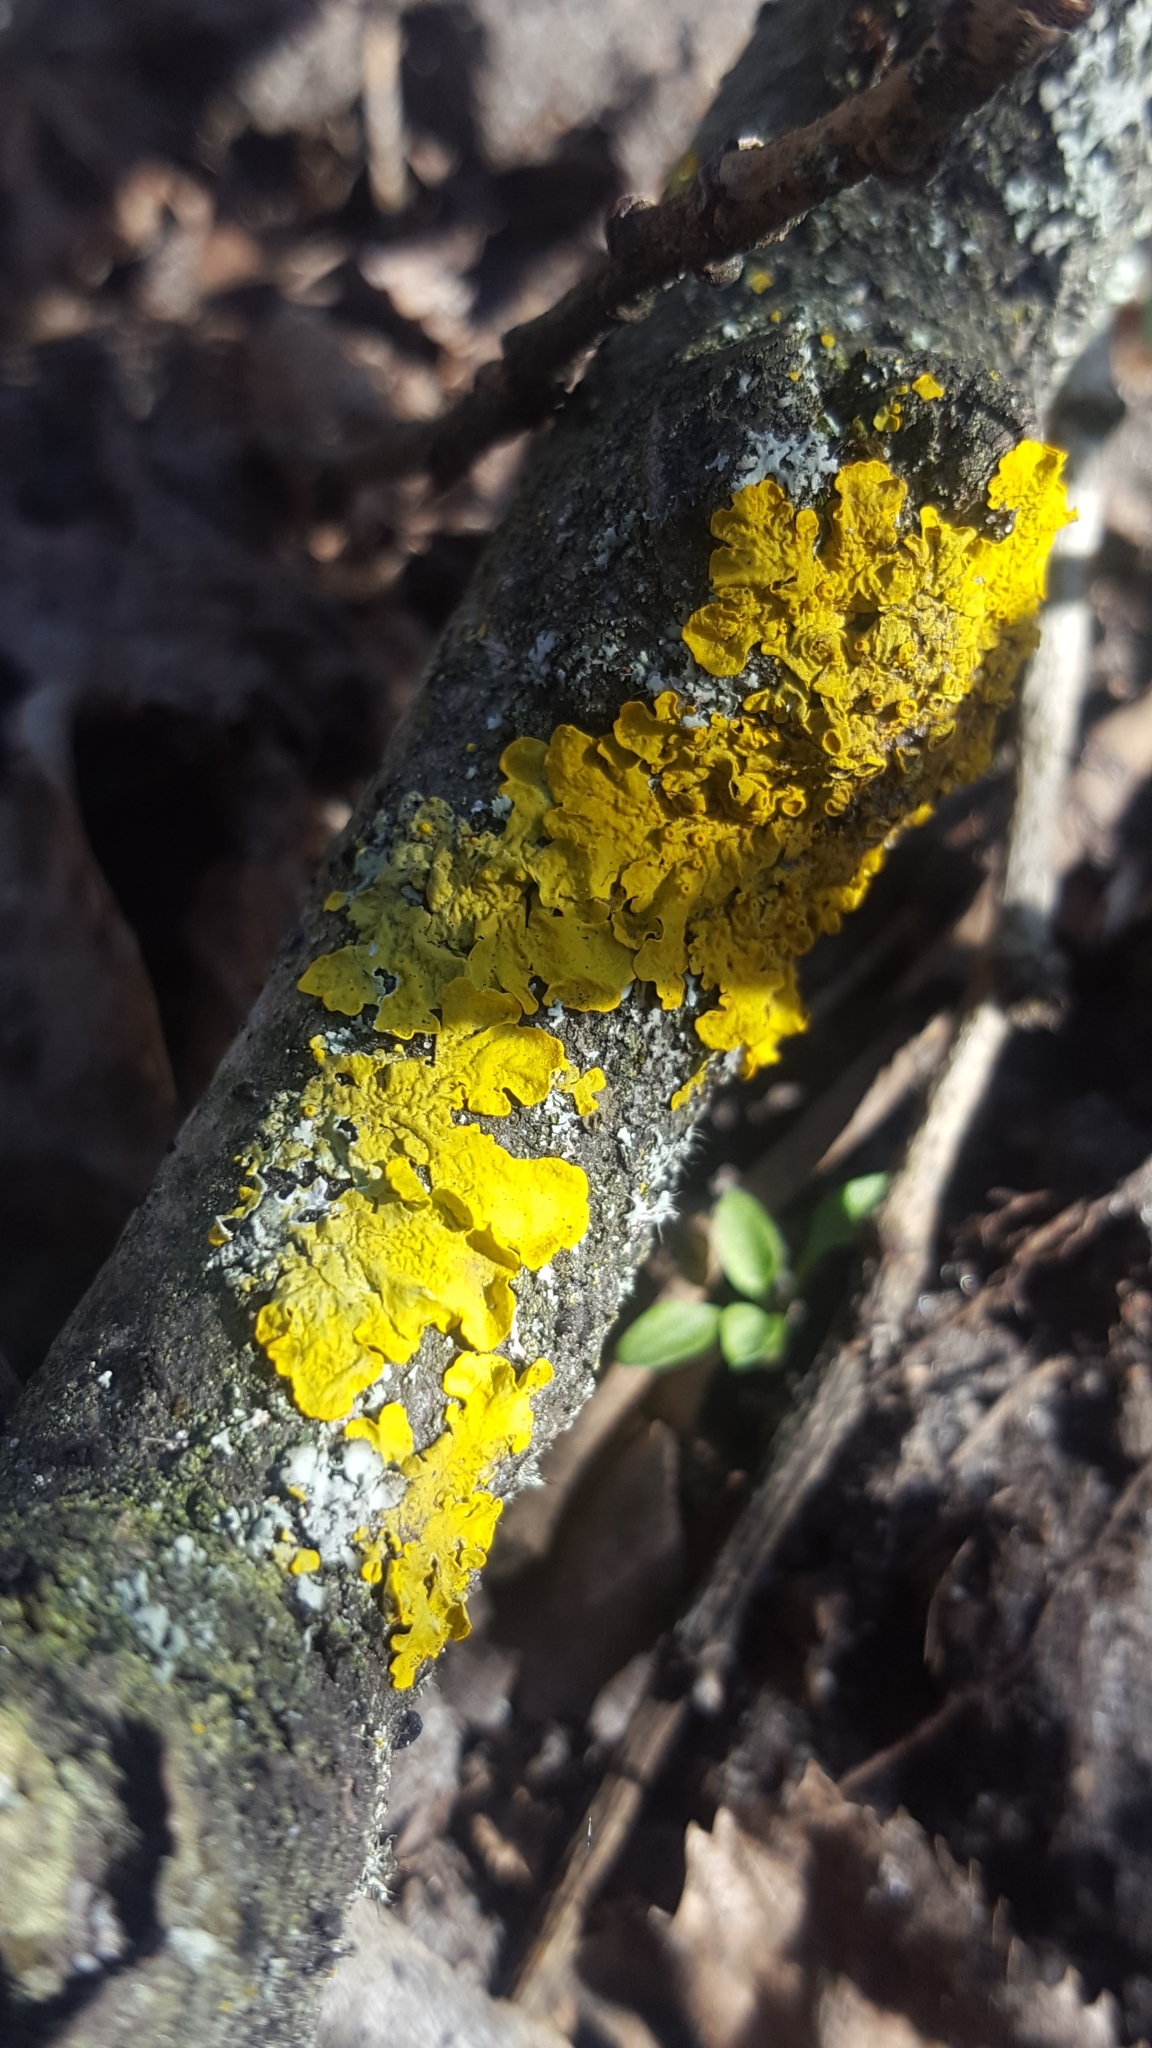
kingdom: Fungi
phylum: Ascomycota
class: Lecanoromycetes
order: Teloschistales
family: Teloschistaceae
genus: Xanthoria
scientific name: Xanthoria parietina
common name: Common orange lichen
